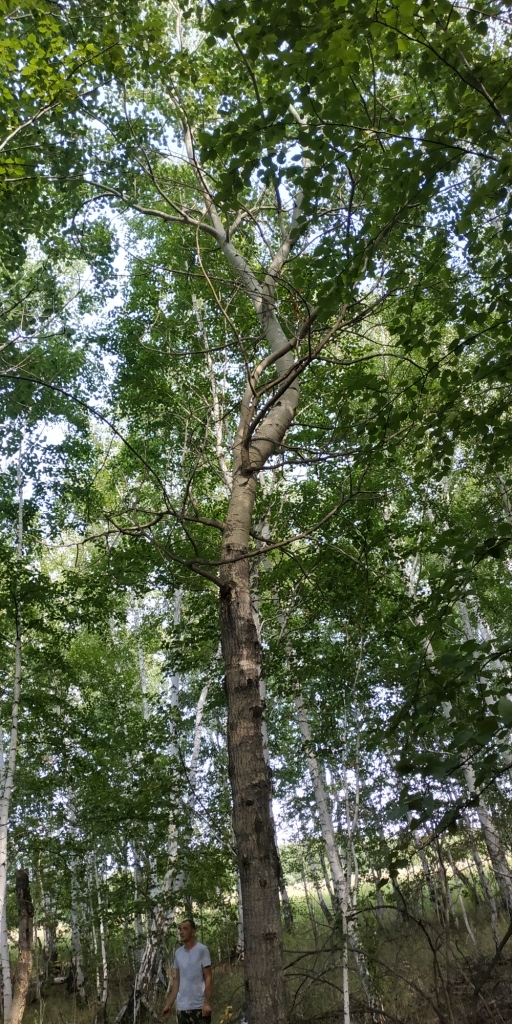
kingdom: Plantae
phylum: Tracheophyta
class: Magnoliopsida
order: Malpighiales
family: Salicaceae
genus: Populus
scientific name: Populus tremula
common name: European aspen
